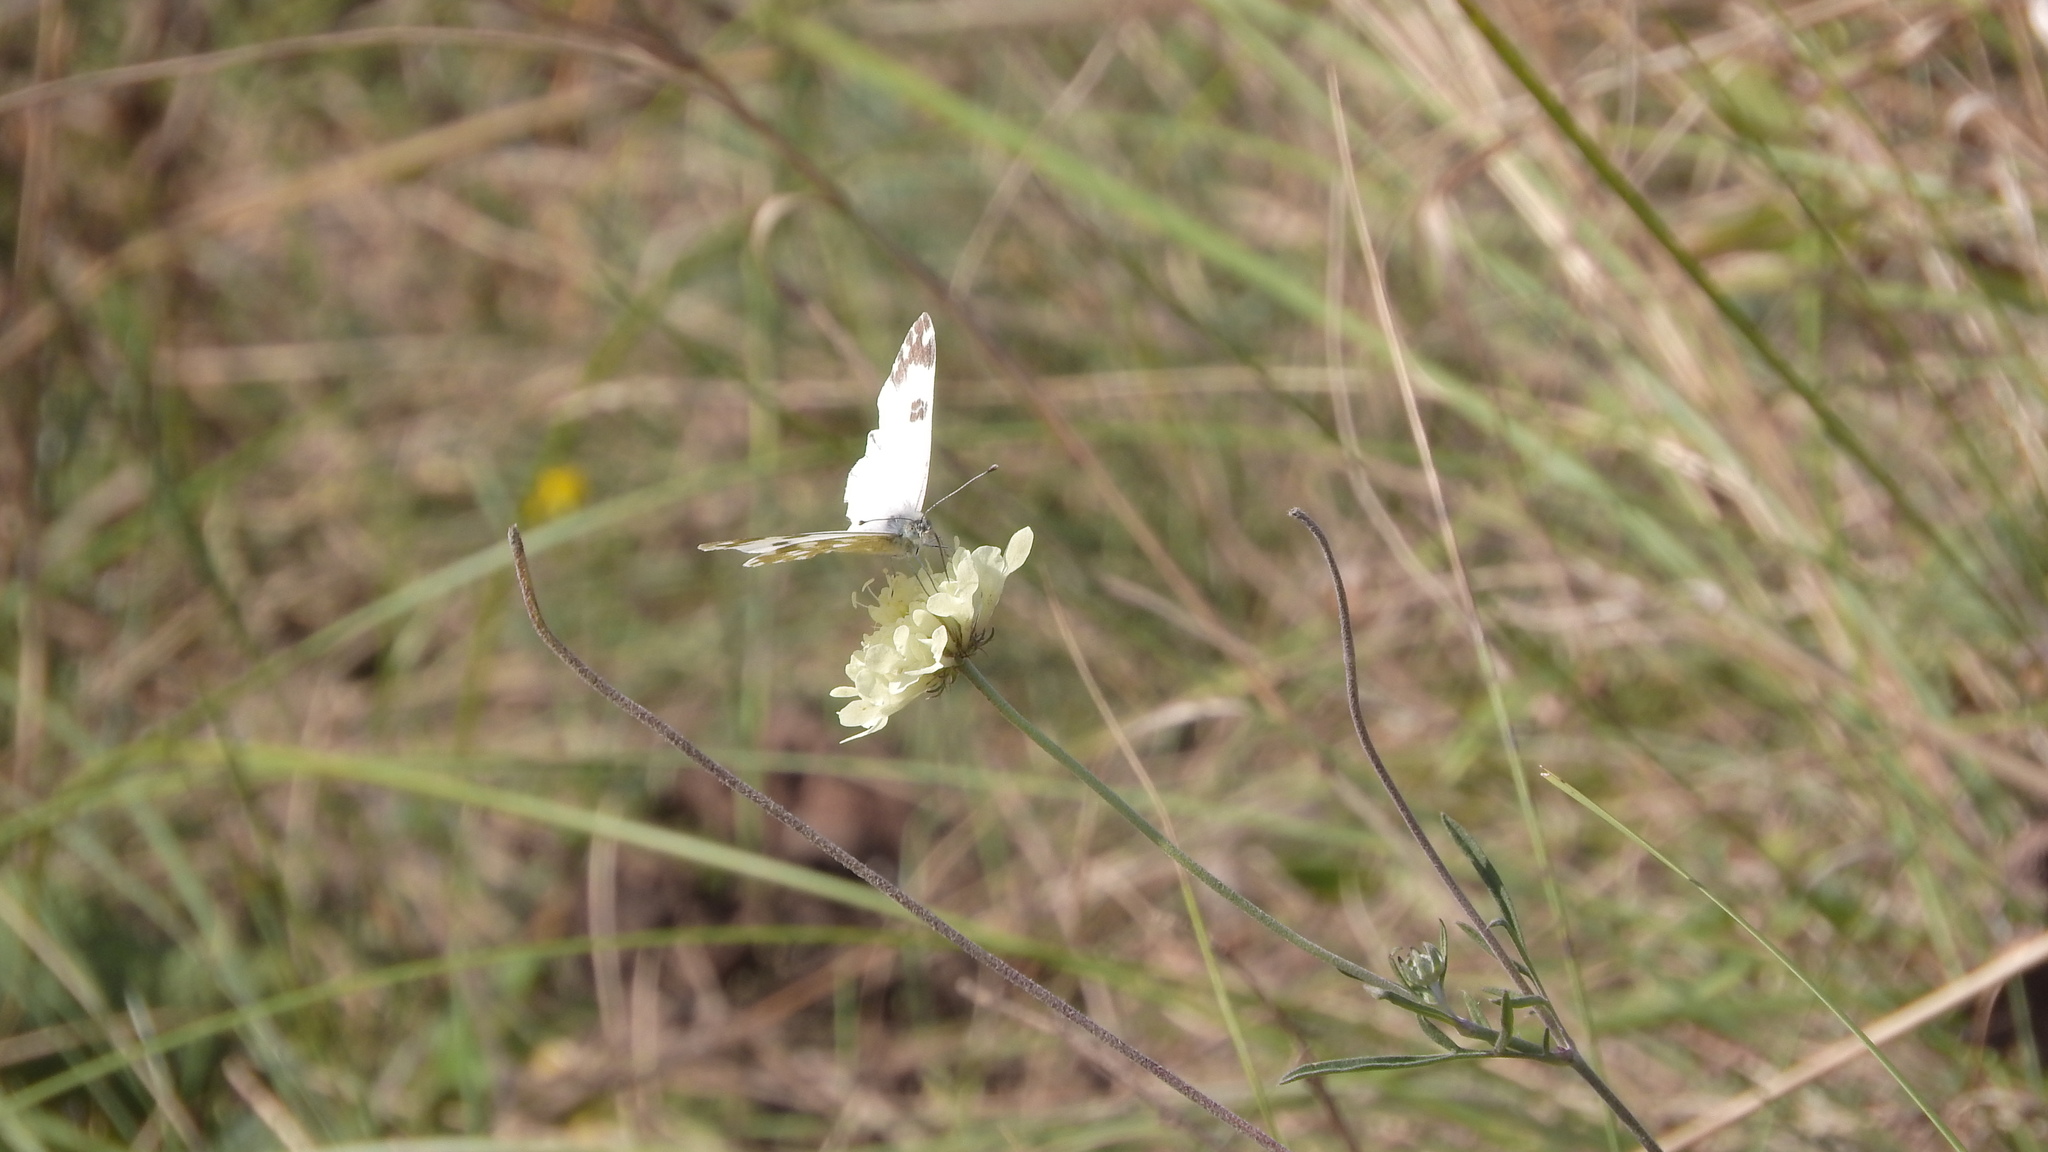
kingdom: Animalia
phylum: Arthropoda
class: Insecta
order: Lepidoptera
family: Pieridae
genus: Pontia
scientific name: Pontia edusa
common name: Eastern bath white
